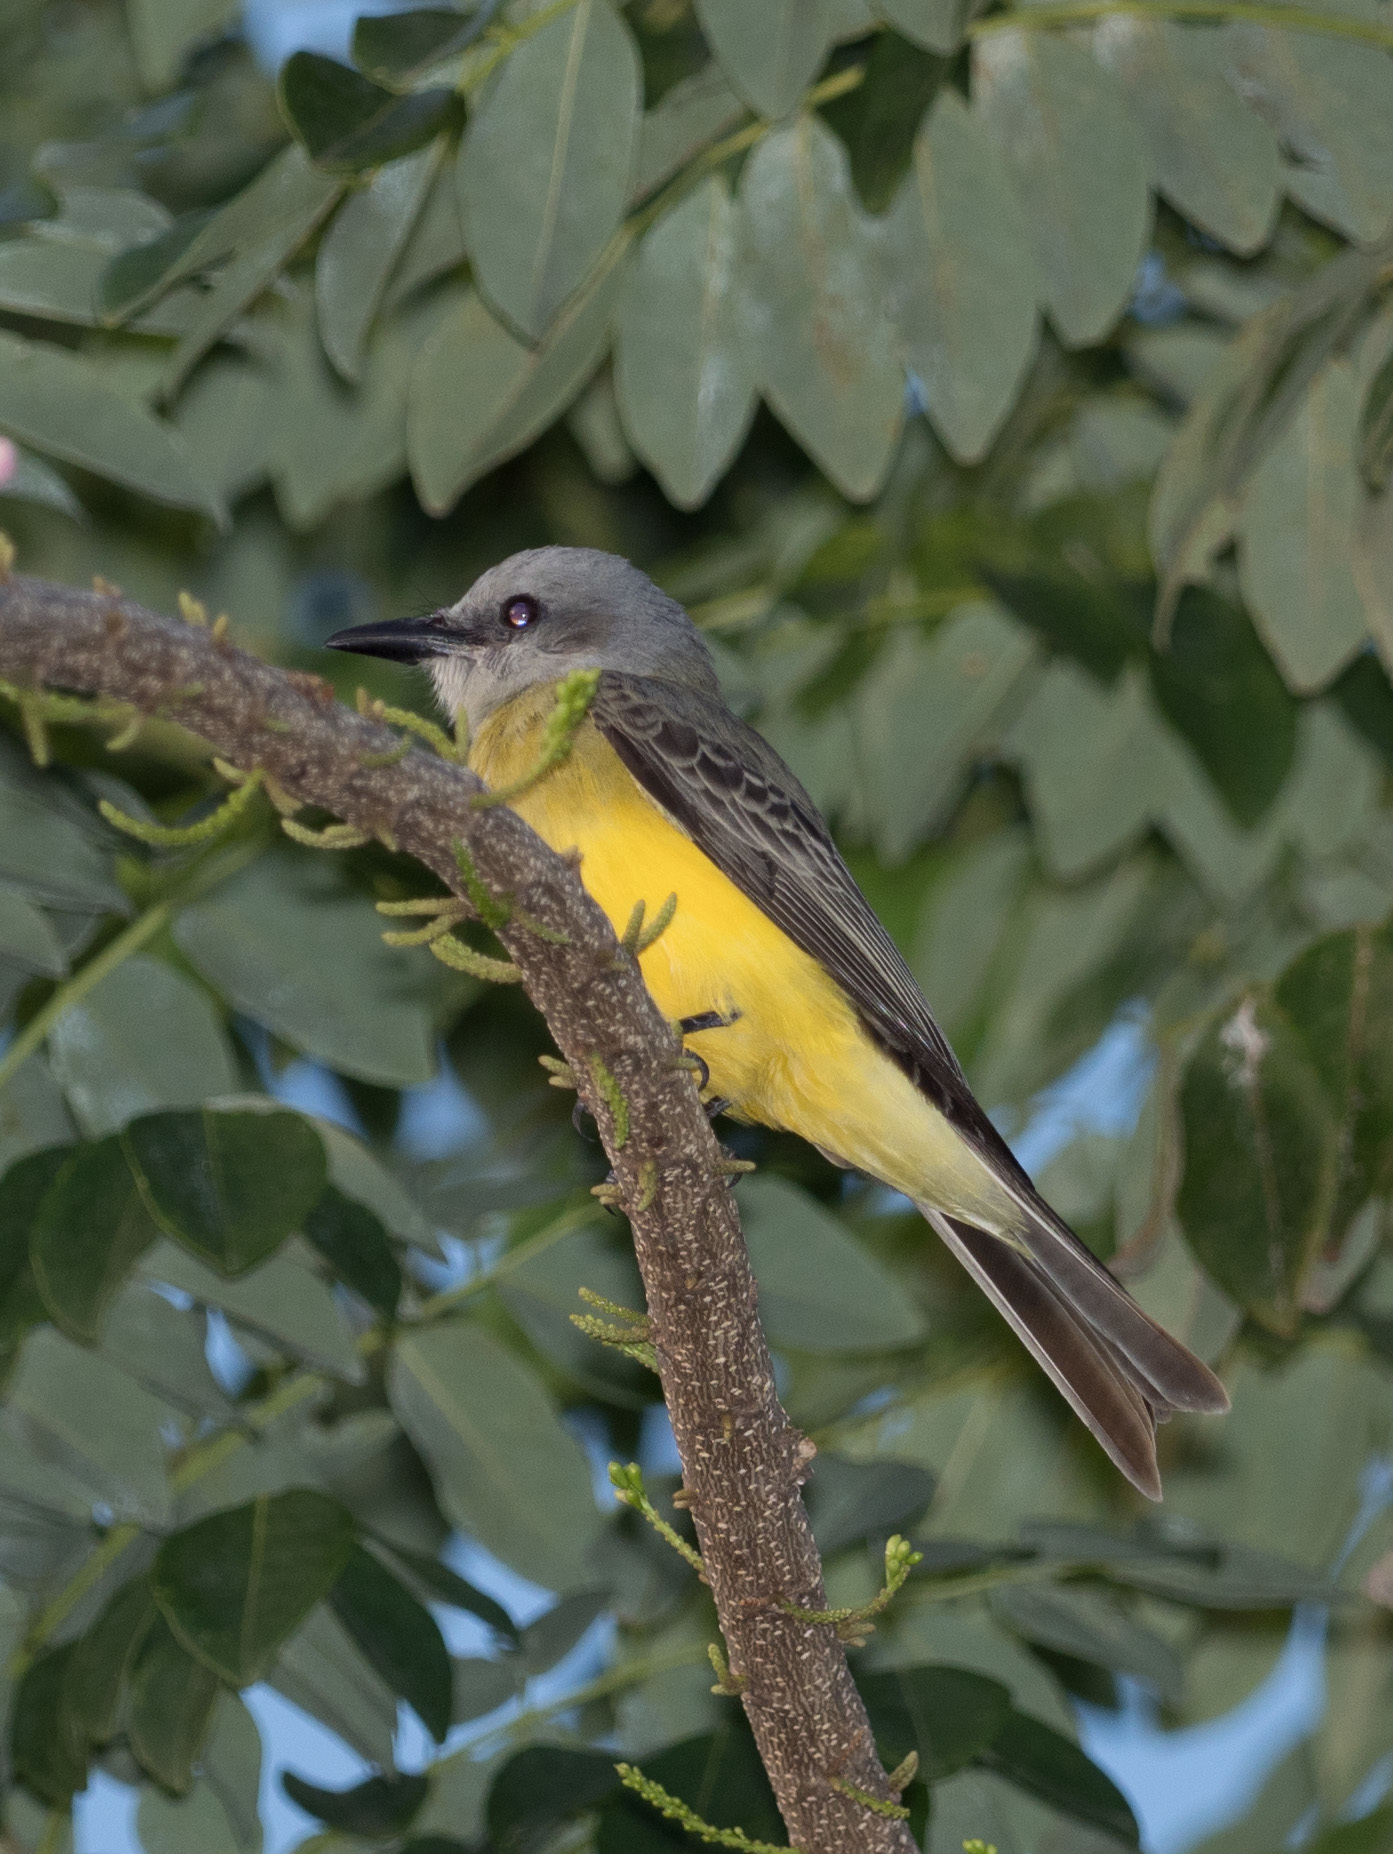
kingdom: Animalia
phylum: Chordata
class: Aves
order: Passeriformes
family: Tyrannidae
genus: Tyrannus
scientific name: Tyrannus melancholicus
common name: Tropical kingbird
